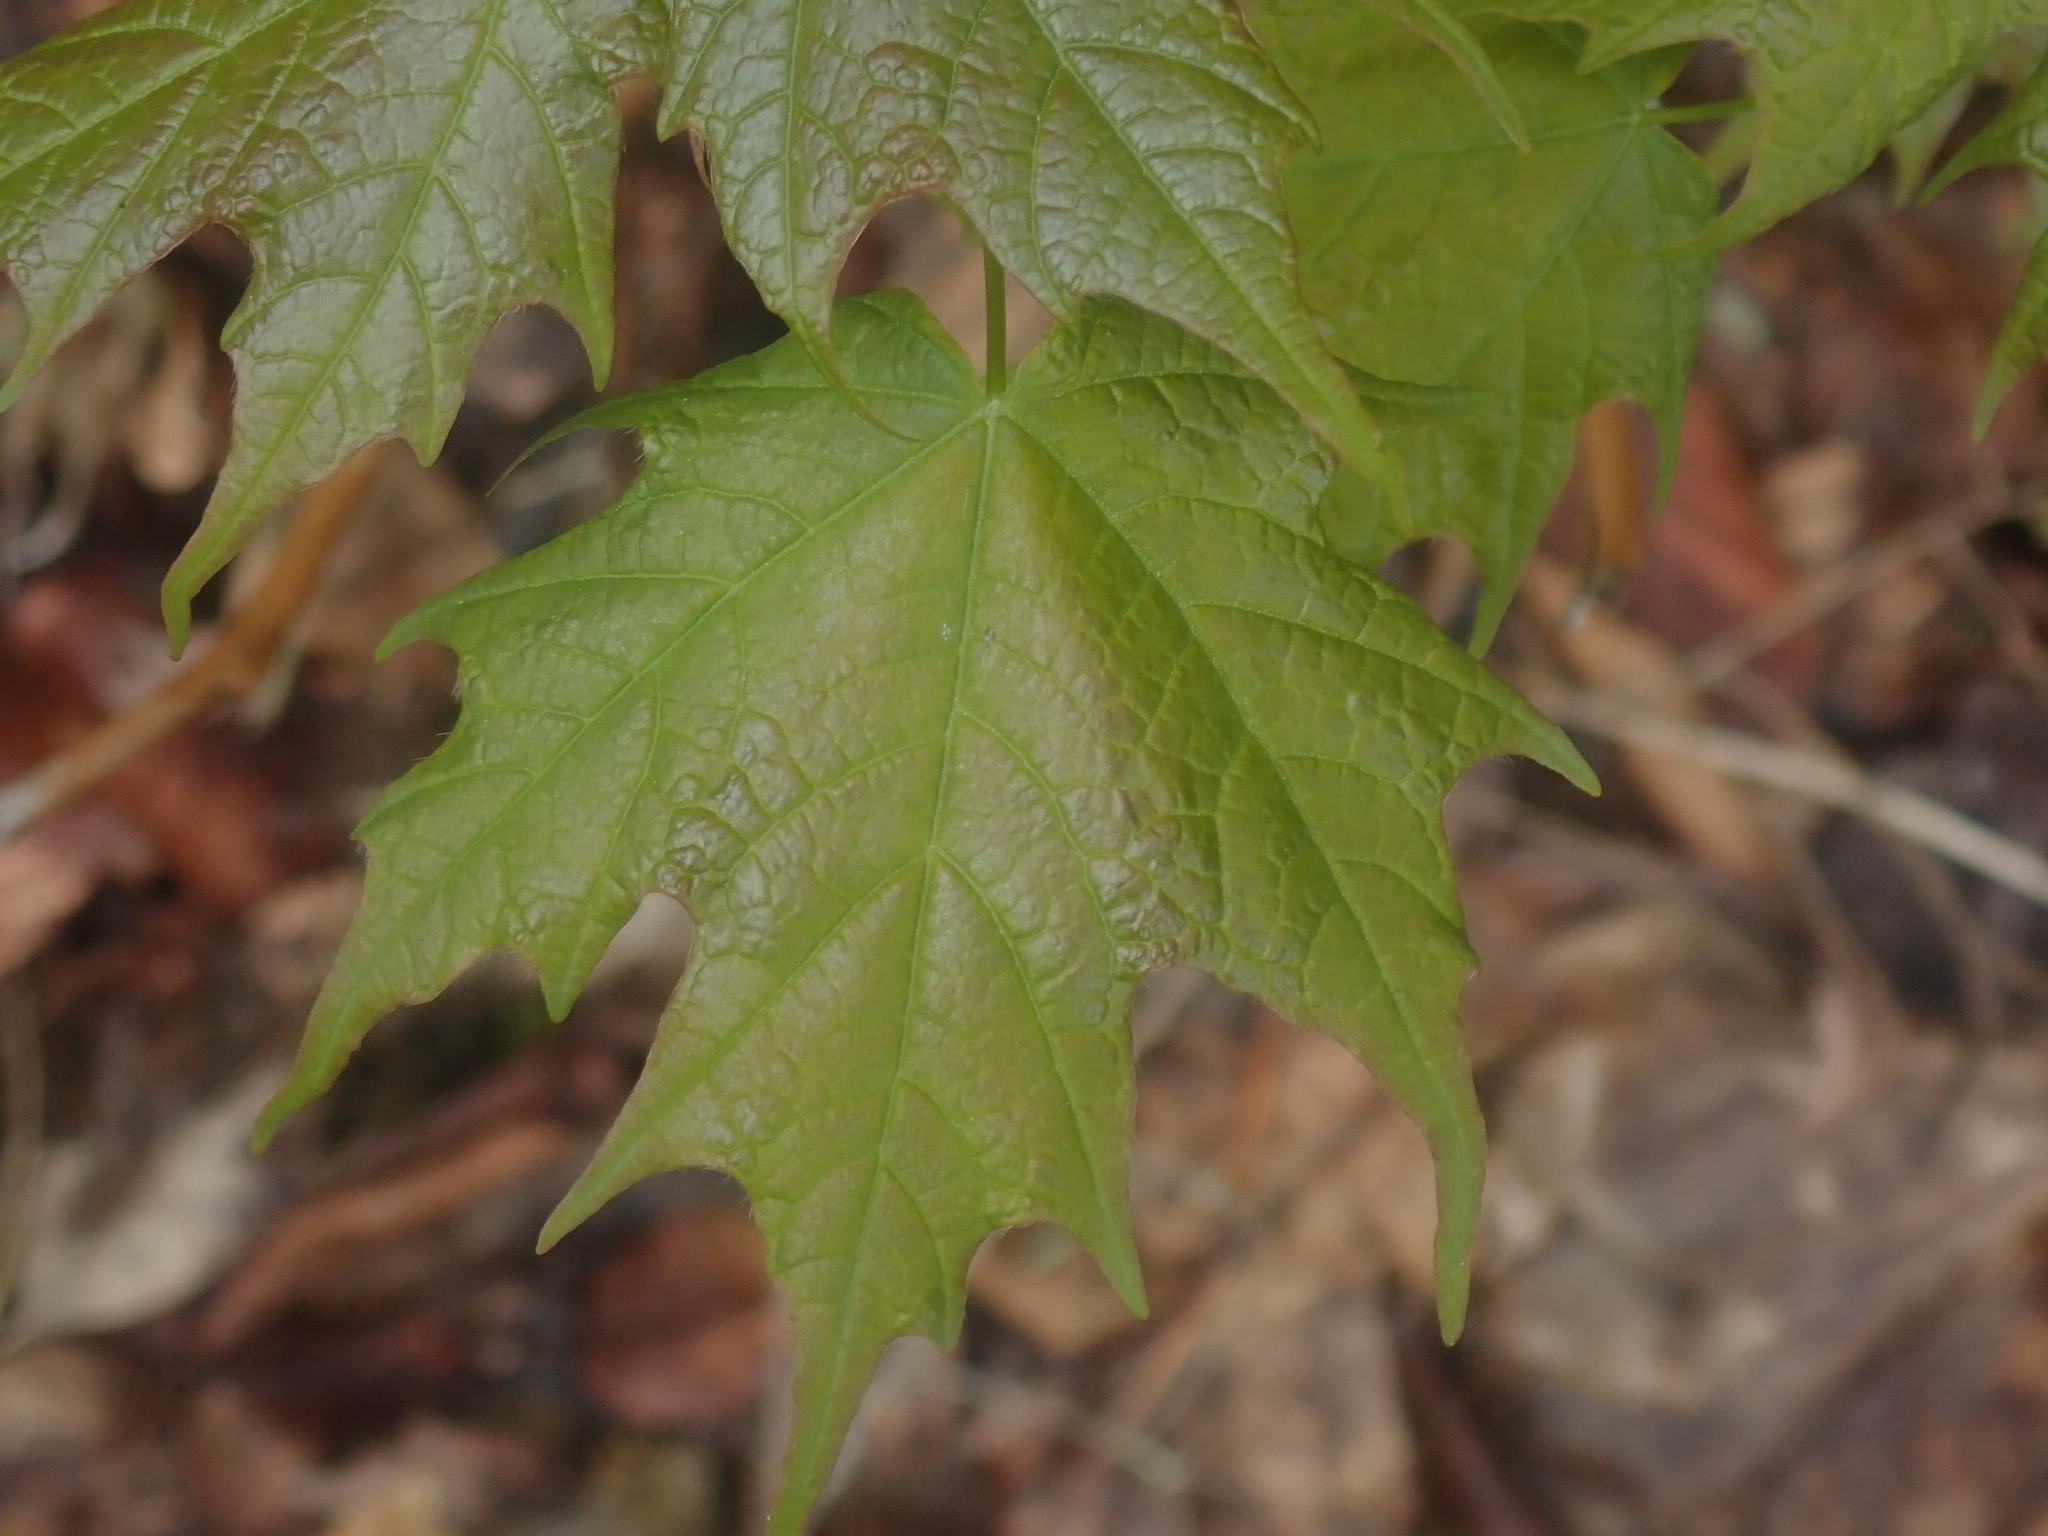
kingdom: Plantae
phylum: Tracheophyta
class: Magnoliopsida
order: Sapindales
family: Sapindaceae
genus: Acer
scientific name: Acer saccharum
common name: Sugar maple
